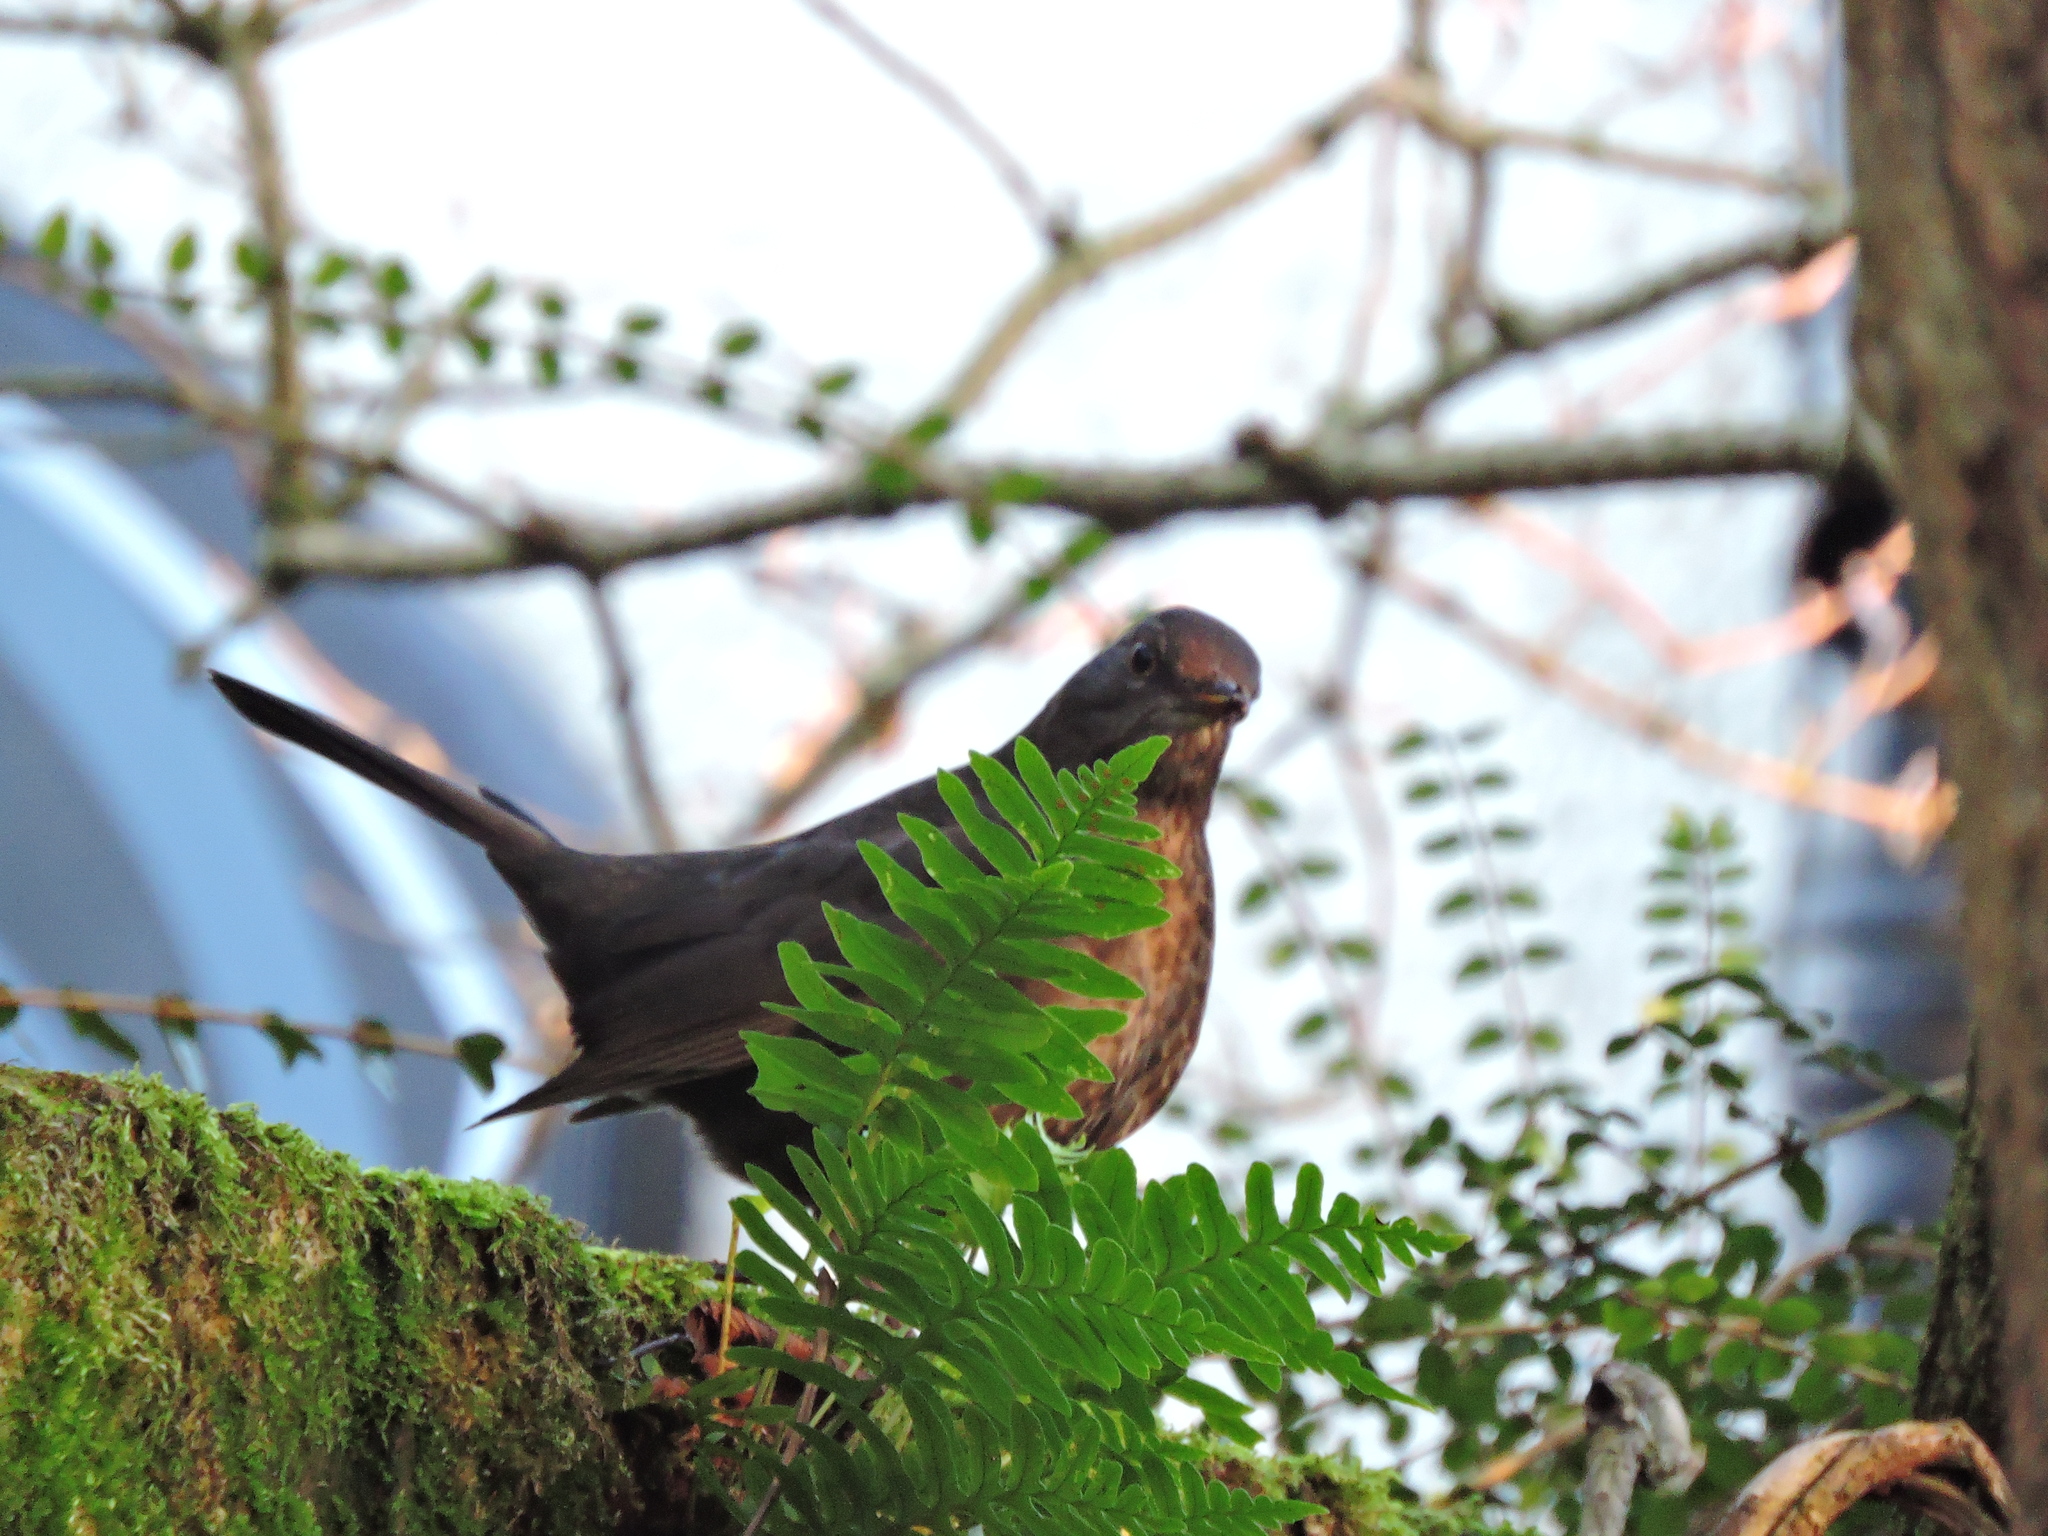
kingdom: Animalia
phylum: Chordata
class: Aves
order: Passeriformes
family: Turdidae
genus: Turdus
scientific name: Turdus merula
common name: Common blackbird
